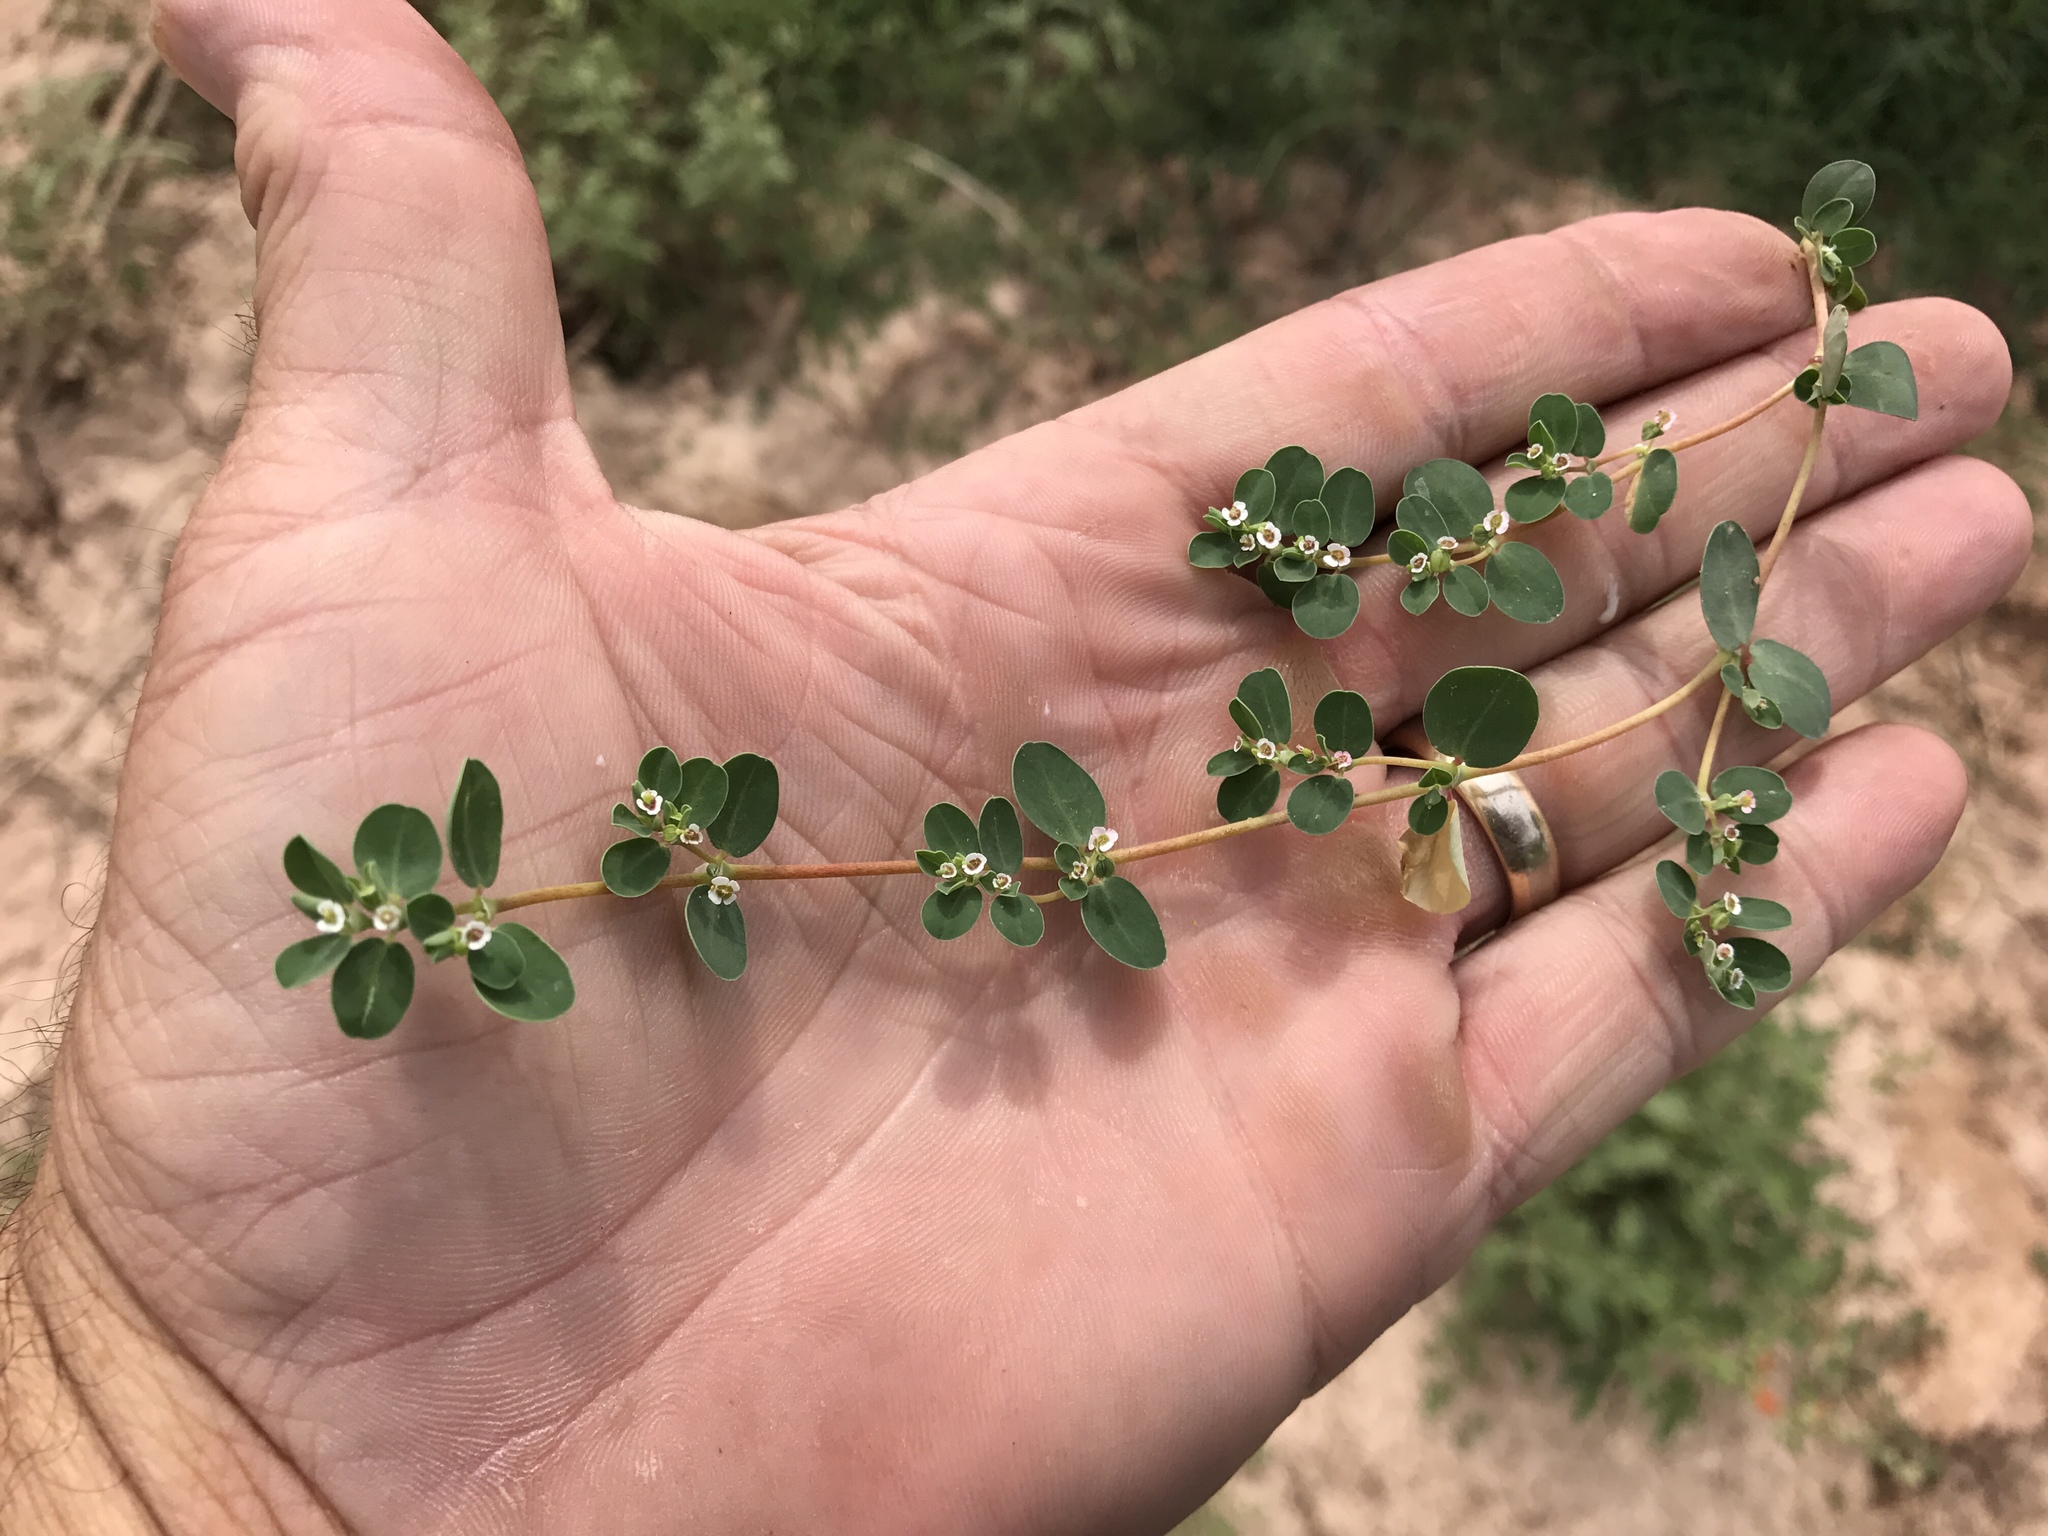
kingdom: Plantae
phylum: Tracheophyta
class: Magnoliopsida
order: Malpighiales
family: Euphorbiaceae
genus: Euphorbia
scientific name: Euphorbia albomarginata
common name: Whitemargin sandmat
